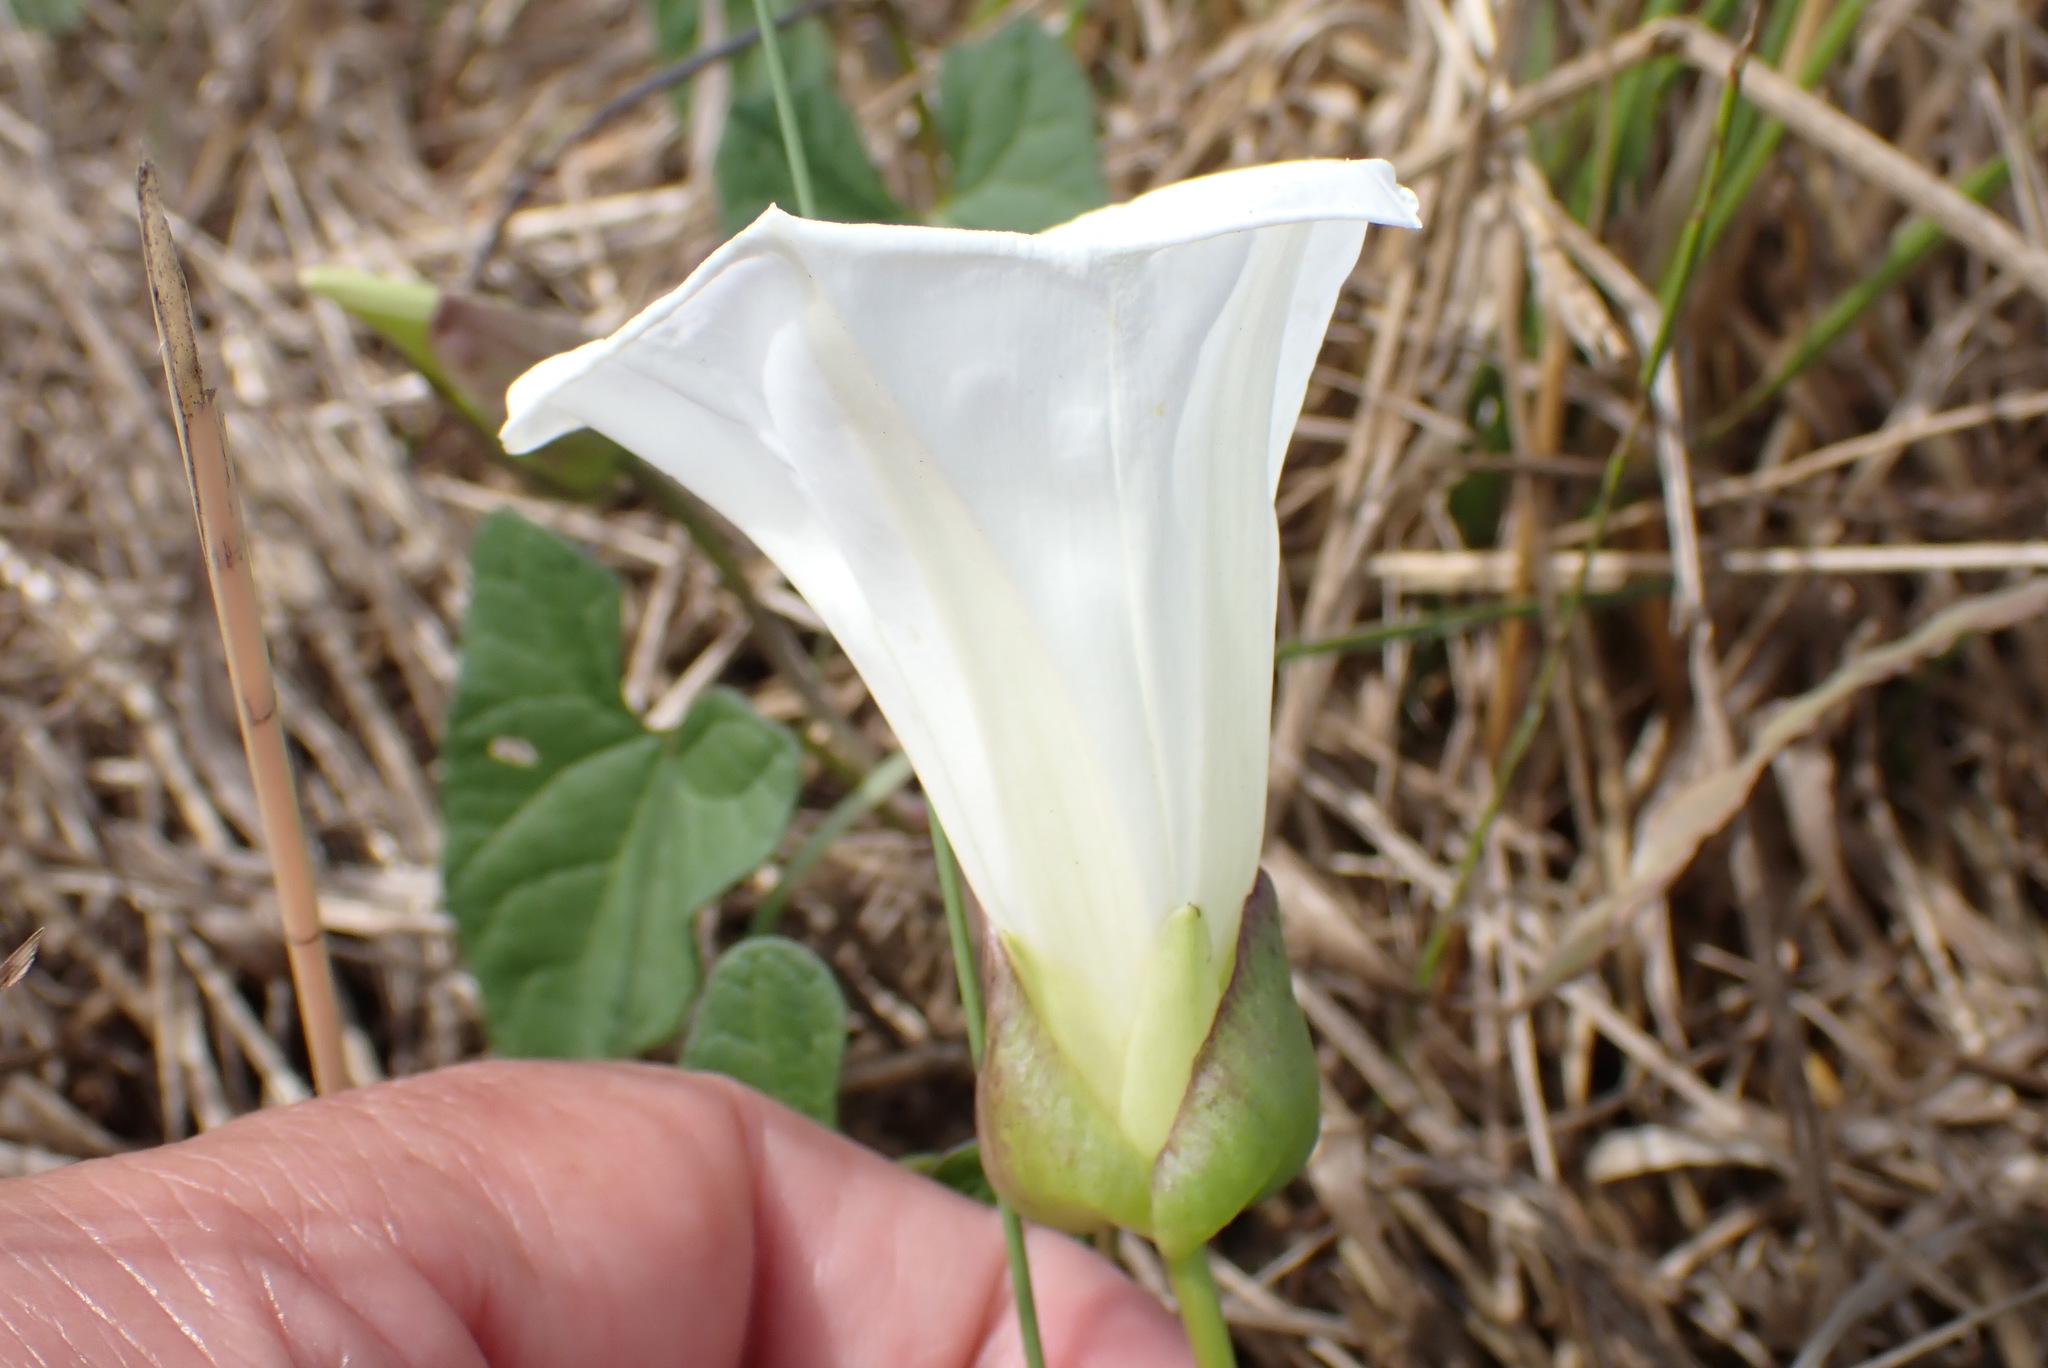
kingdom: Plantae
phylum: Tracheophyta
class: Magnoliopsida
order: Solanales
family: Convolvulaceae
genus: Calystegia
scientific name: Calystegia sepium
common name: Hedge bindweed
